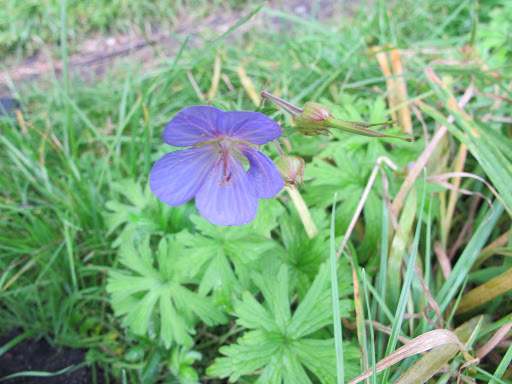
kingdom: Plantae
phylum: Tracheophyta
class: Magnoliopsida
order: Geraniales
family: Geraniaceae
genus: Geranium
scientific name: Geranium pratense
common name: Meadow crane's-bill
